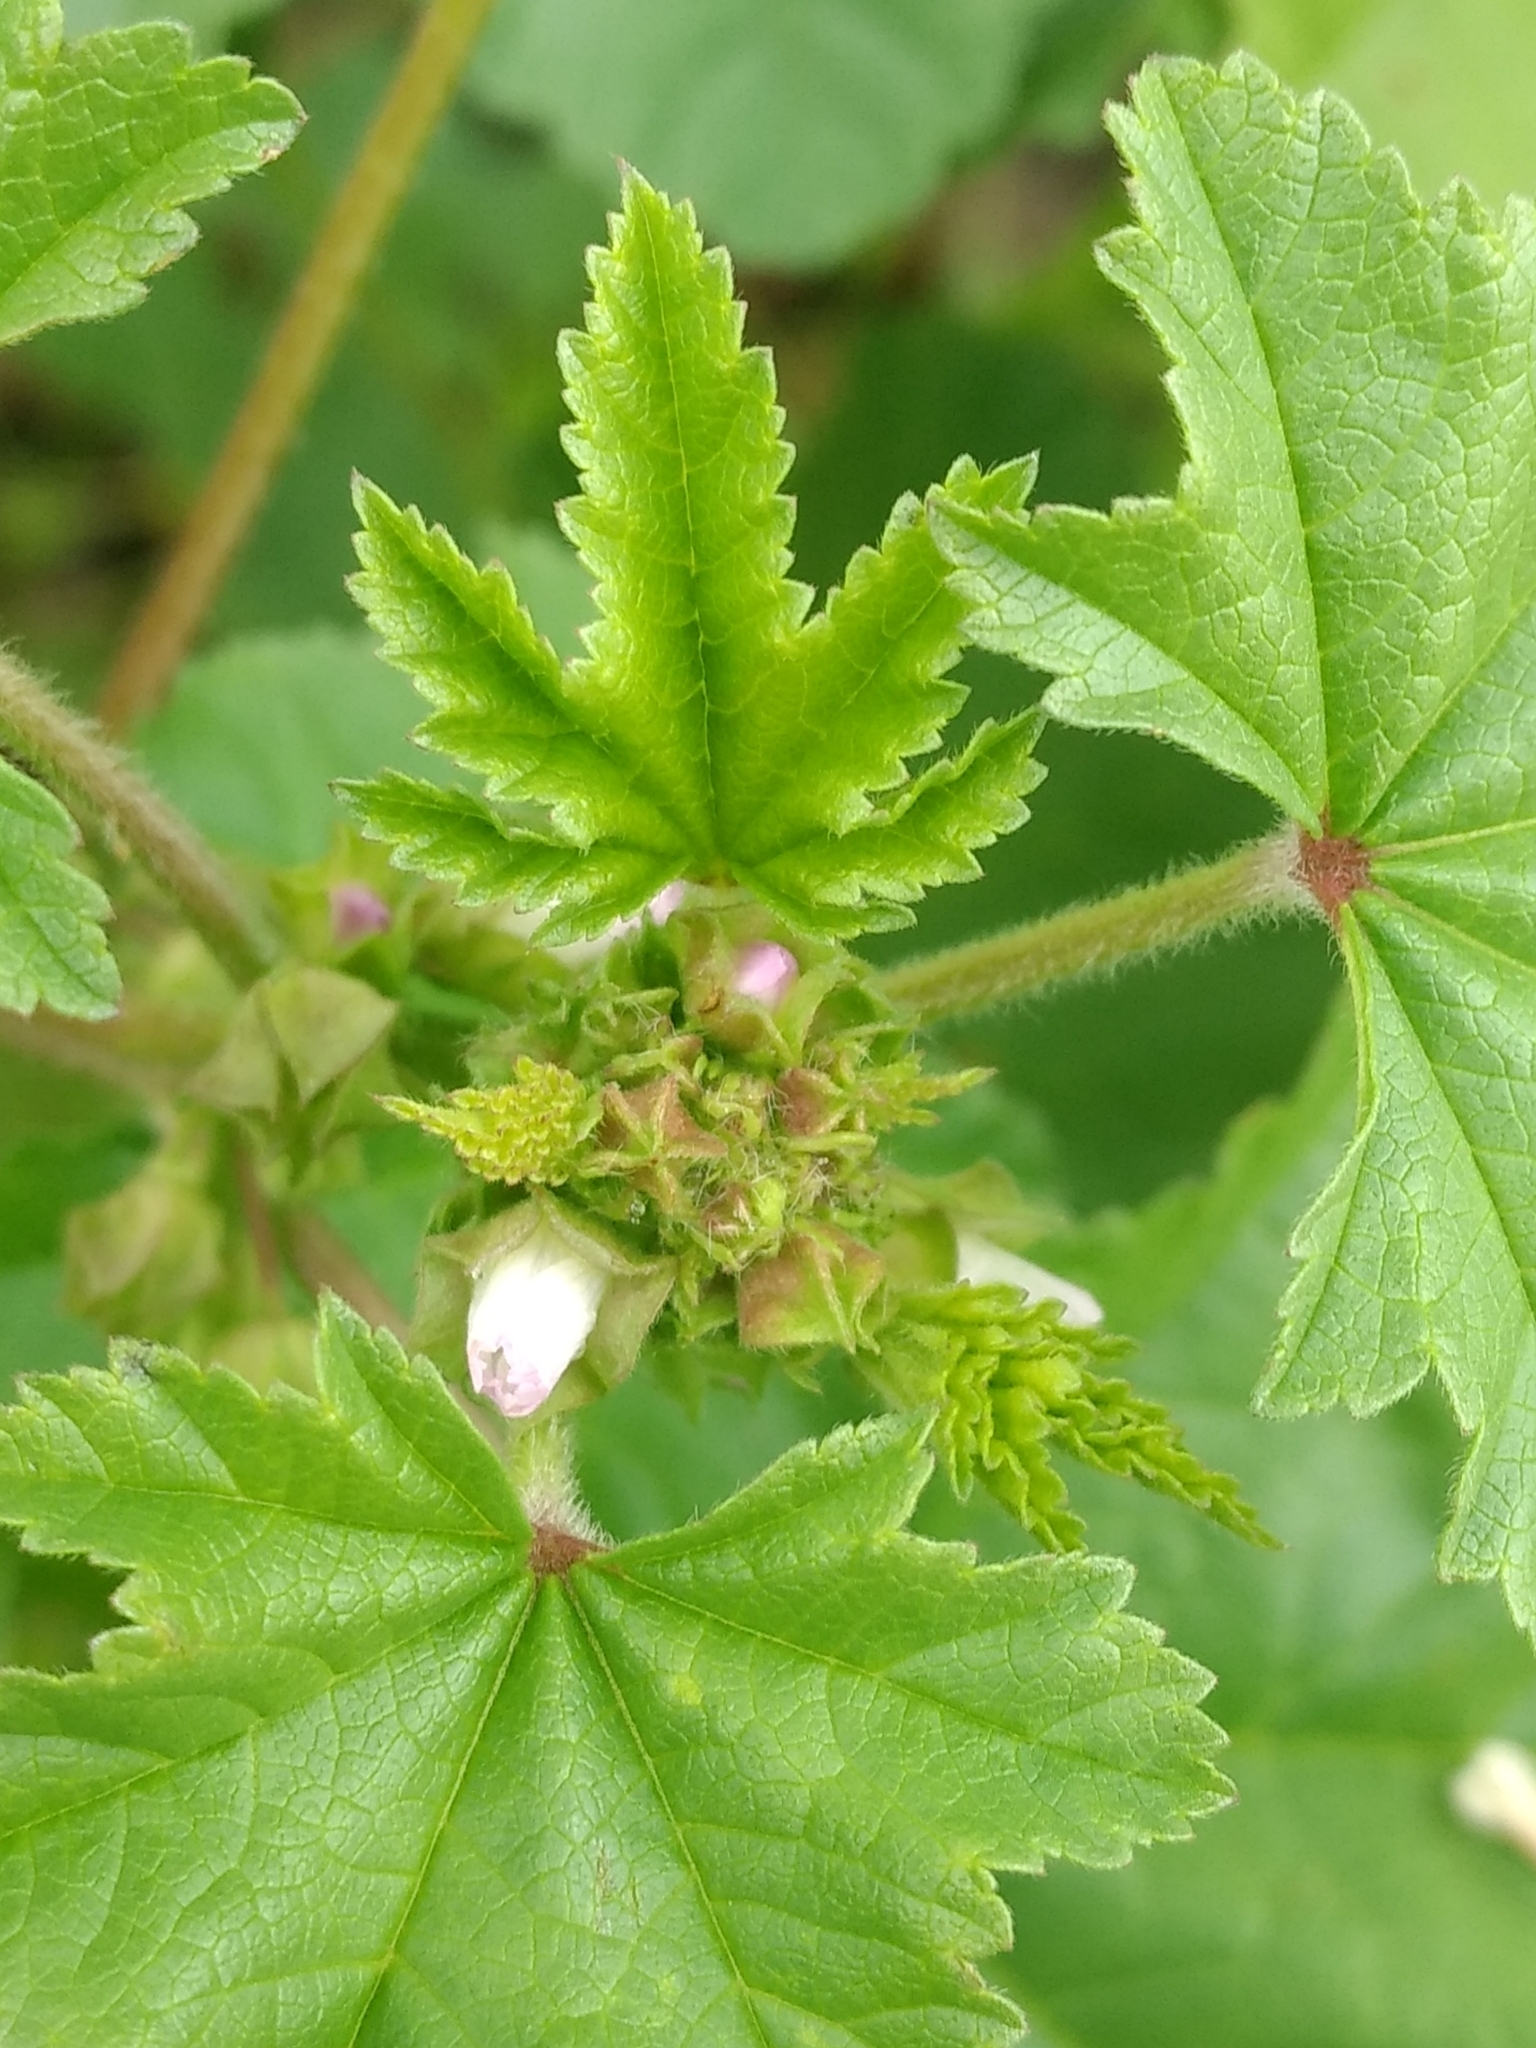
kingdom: Plantae
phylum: Tracheophyta
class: Magnoliopsida
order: Malvales
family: Malvaceae
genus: Malva
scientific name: Malva parviflora
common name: Least mallow
